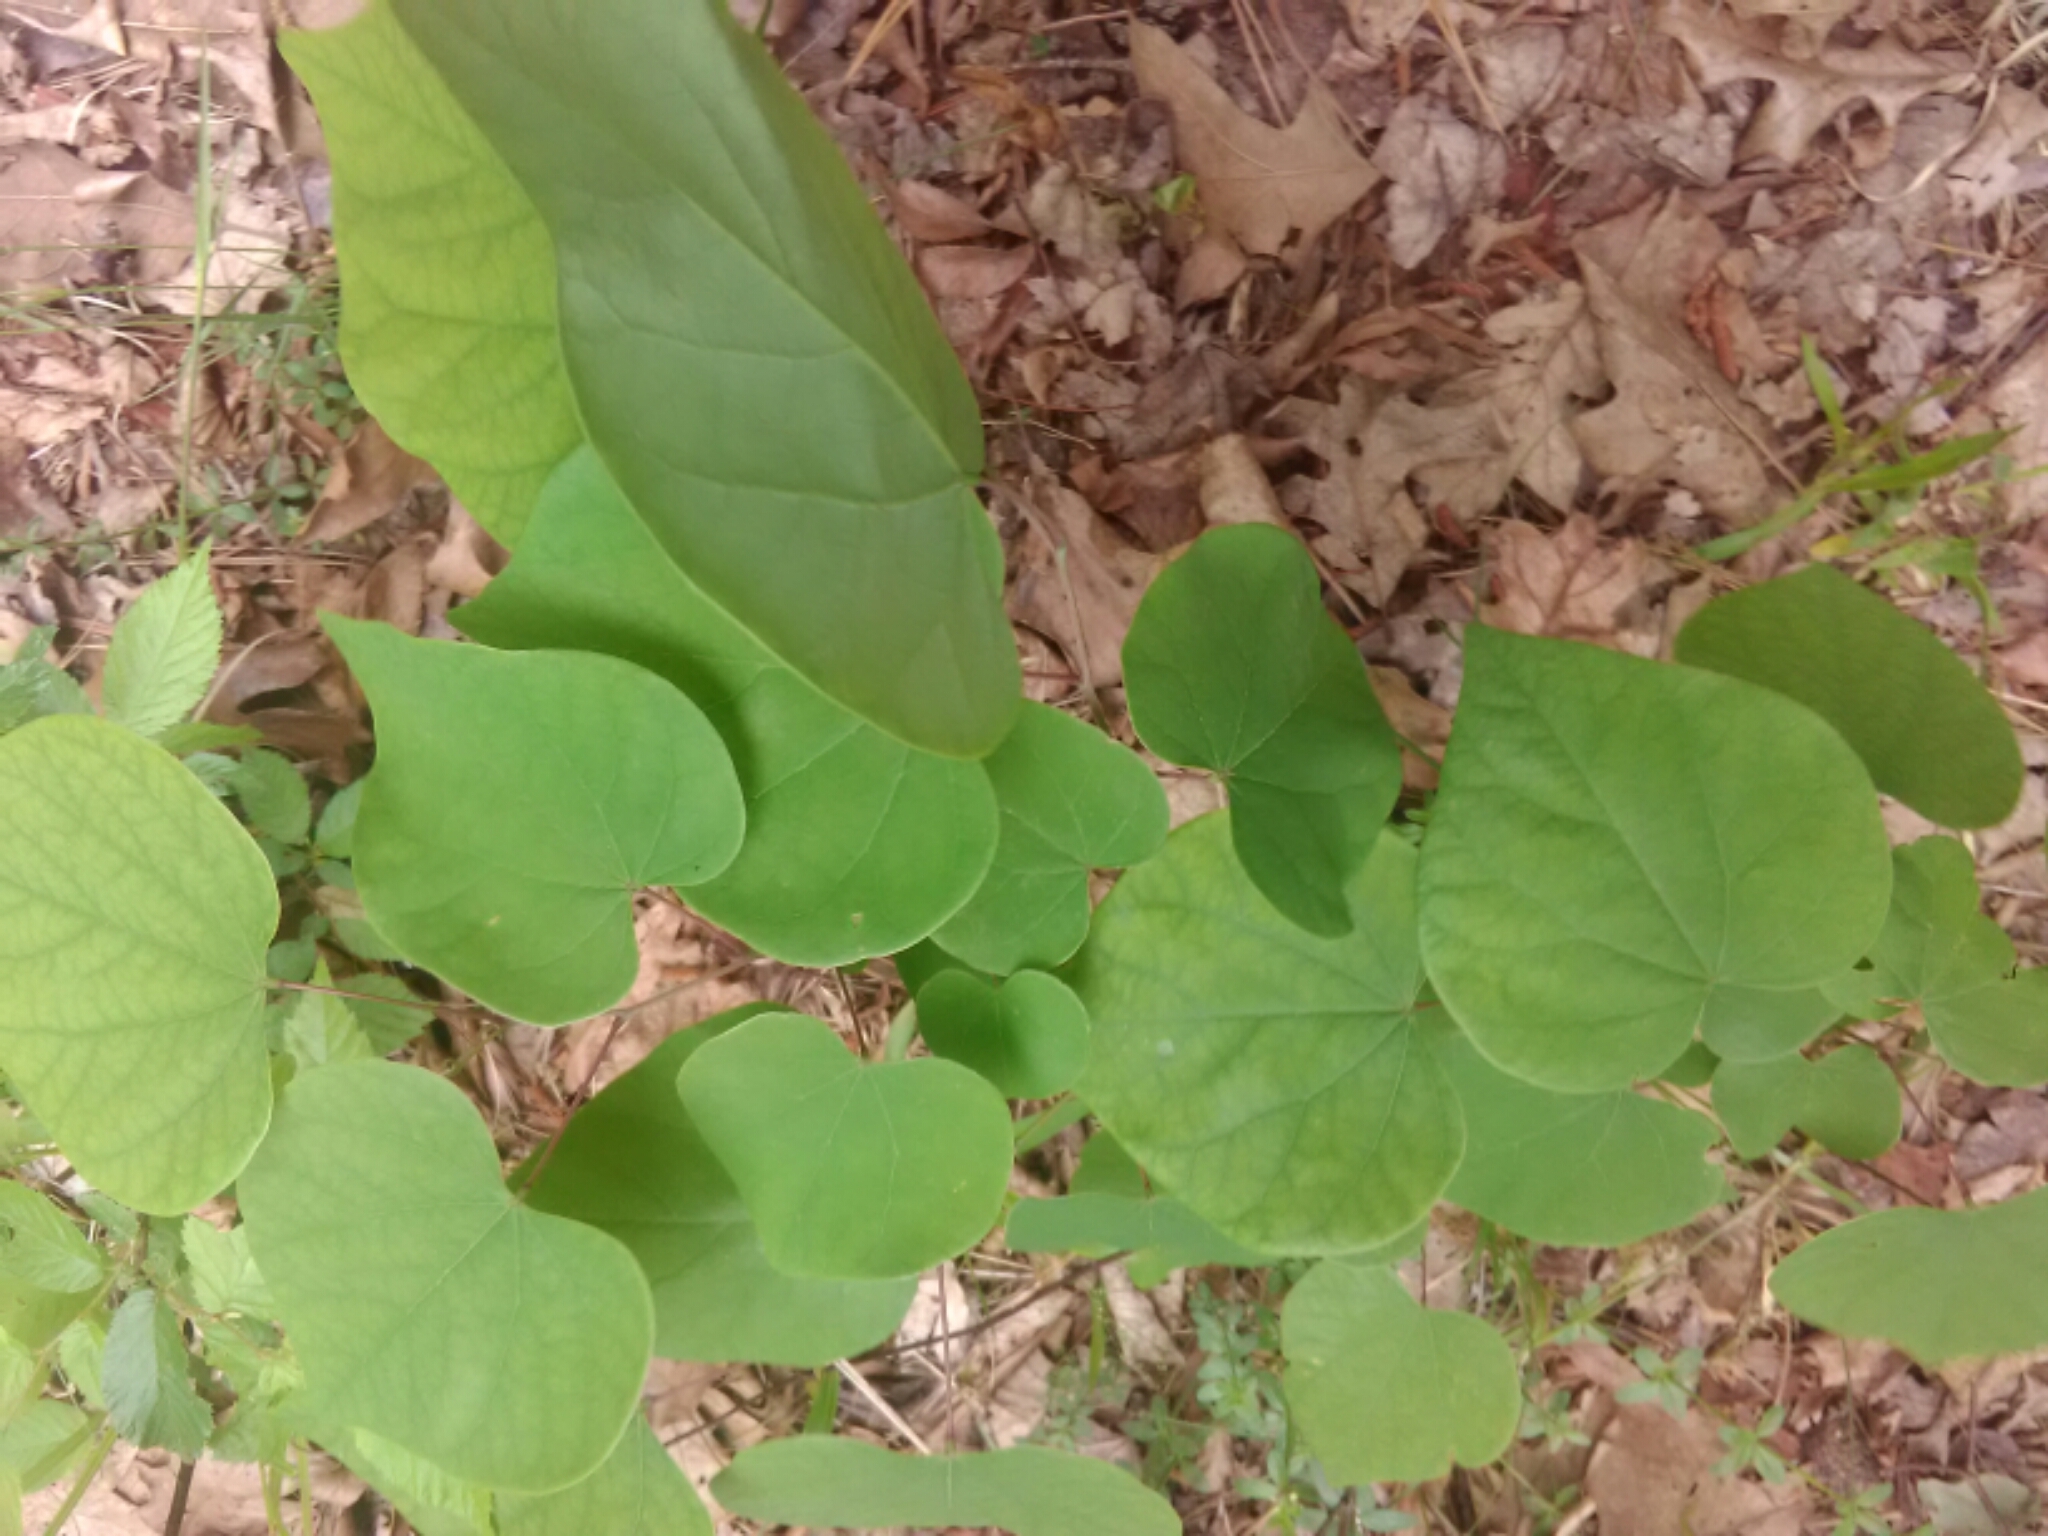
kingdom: Plantae
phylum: Tracheophyta
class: Magnoliopsida
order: Fabales
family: Fabaceae
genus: Cercis
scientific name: Cercis canadensis
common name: Eastern redbud
